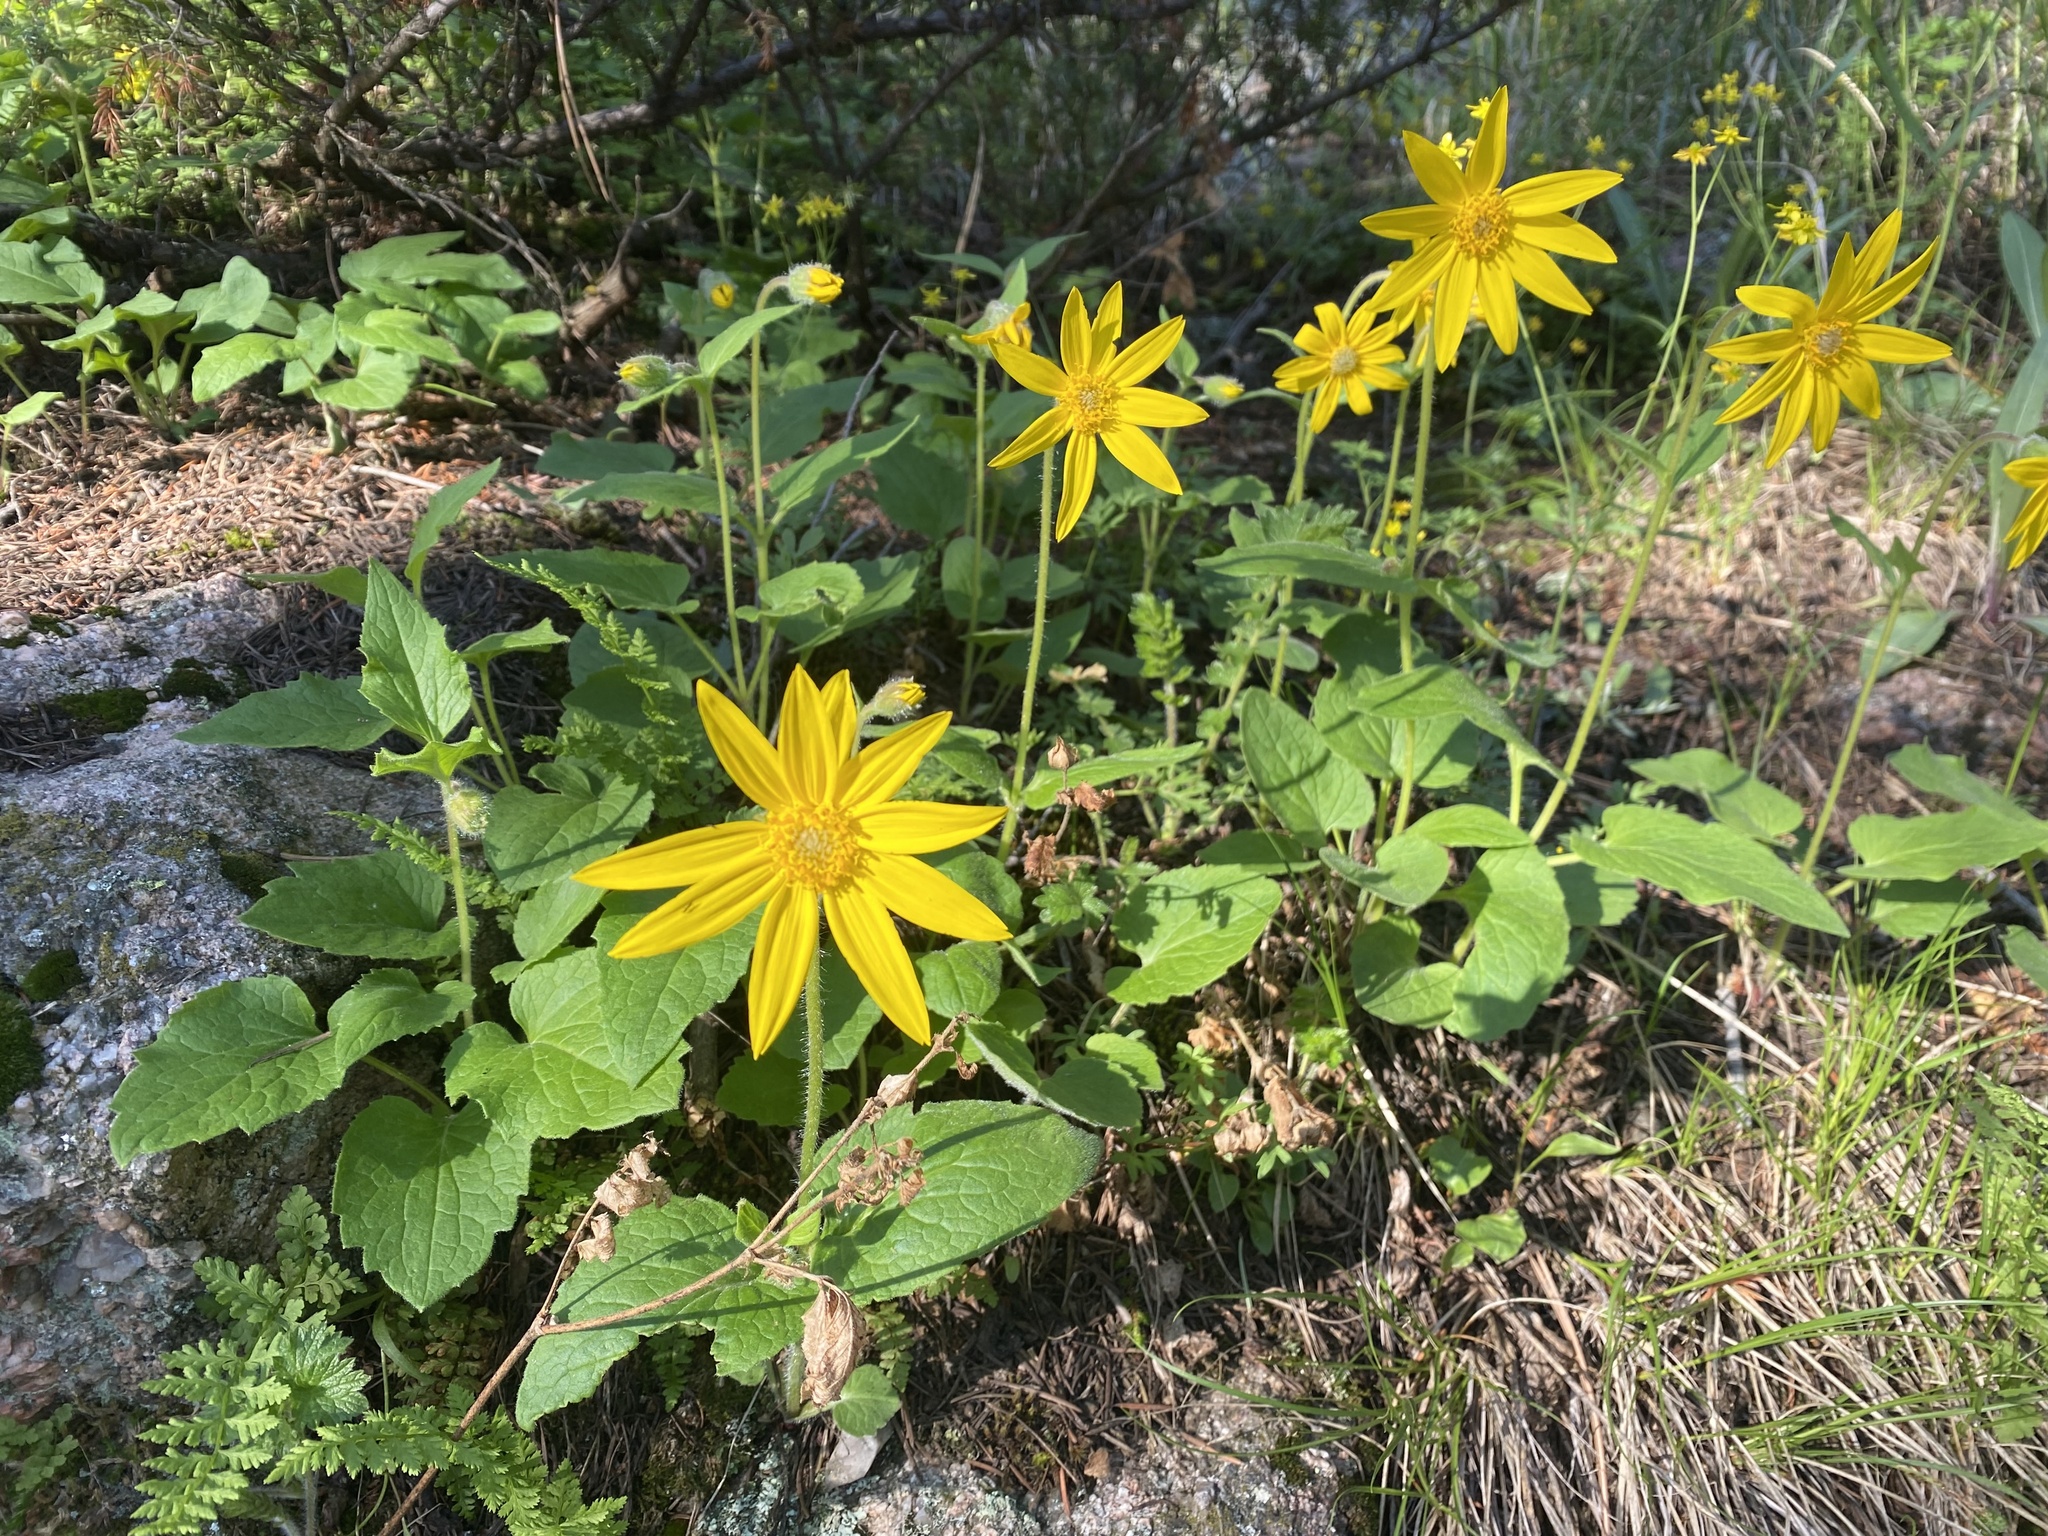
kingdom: Plantae
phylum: Tracheophyta
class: Magnoliopsida
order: Asterales
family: Asteraceae
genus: Arnica
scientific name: Arnica cordifolia
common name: Heart-leaf arnica
